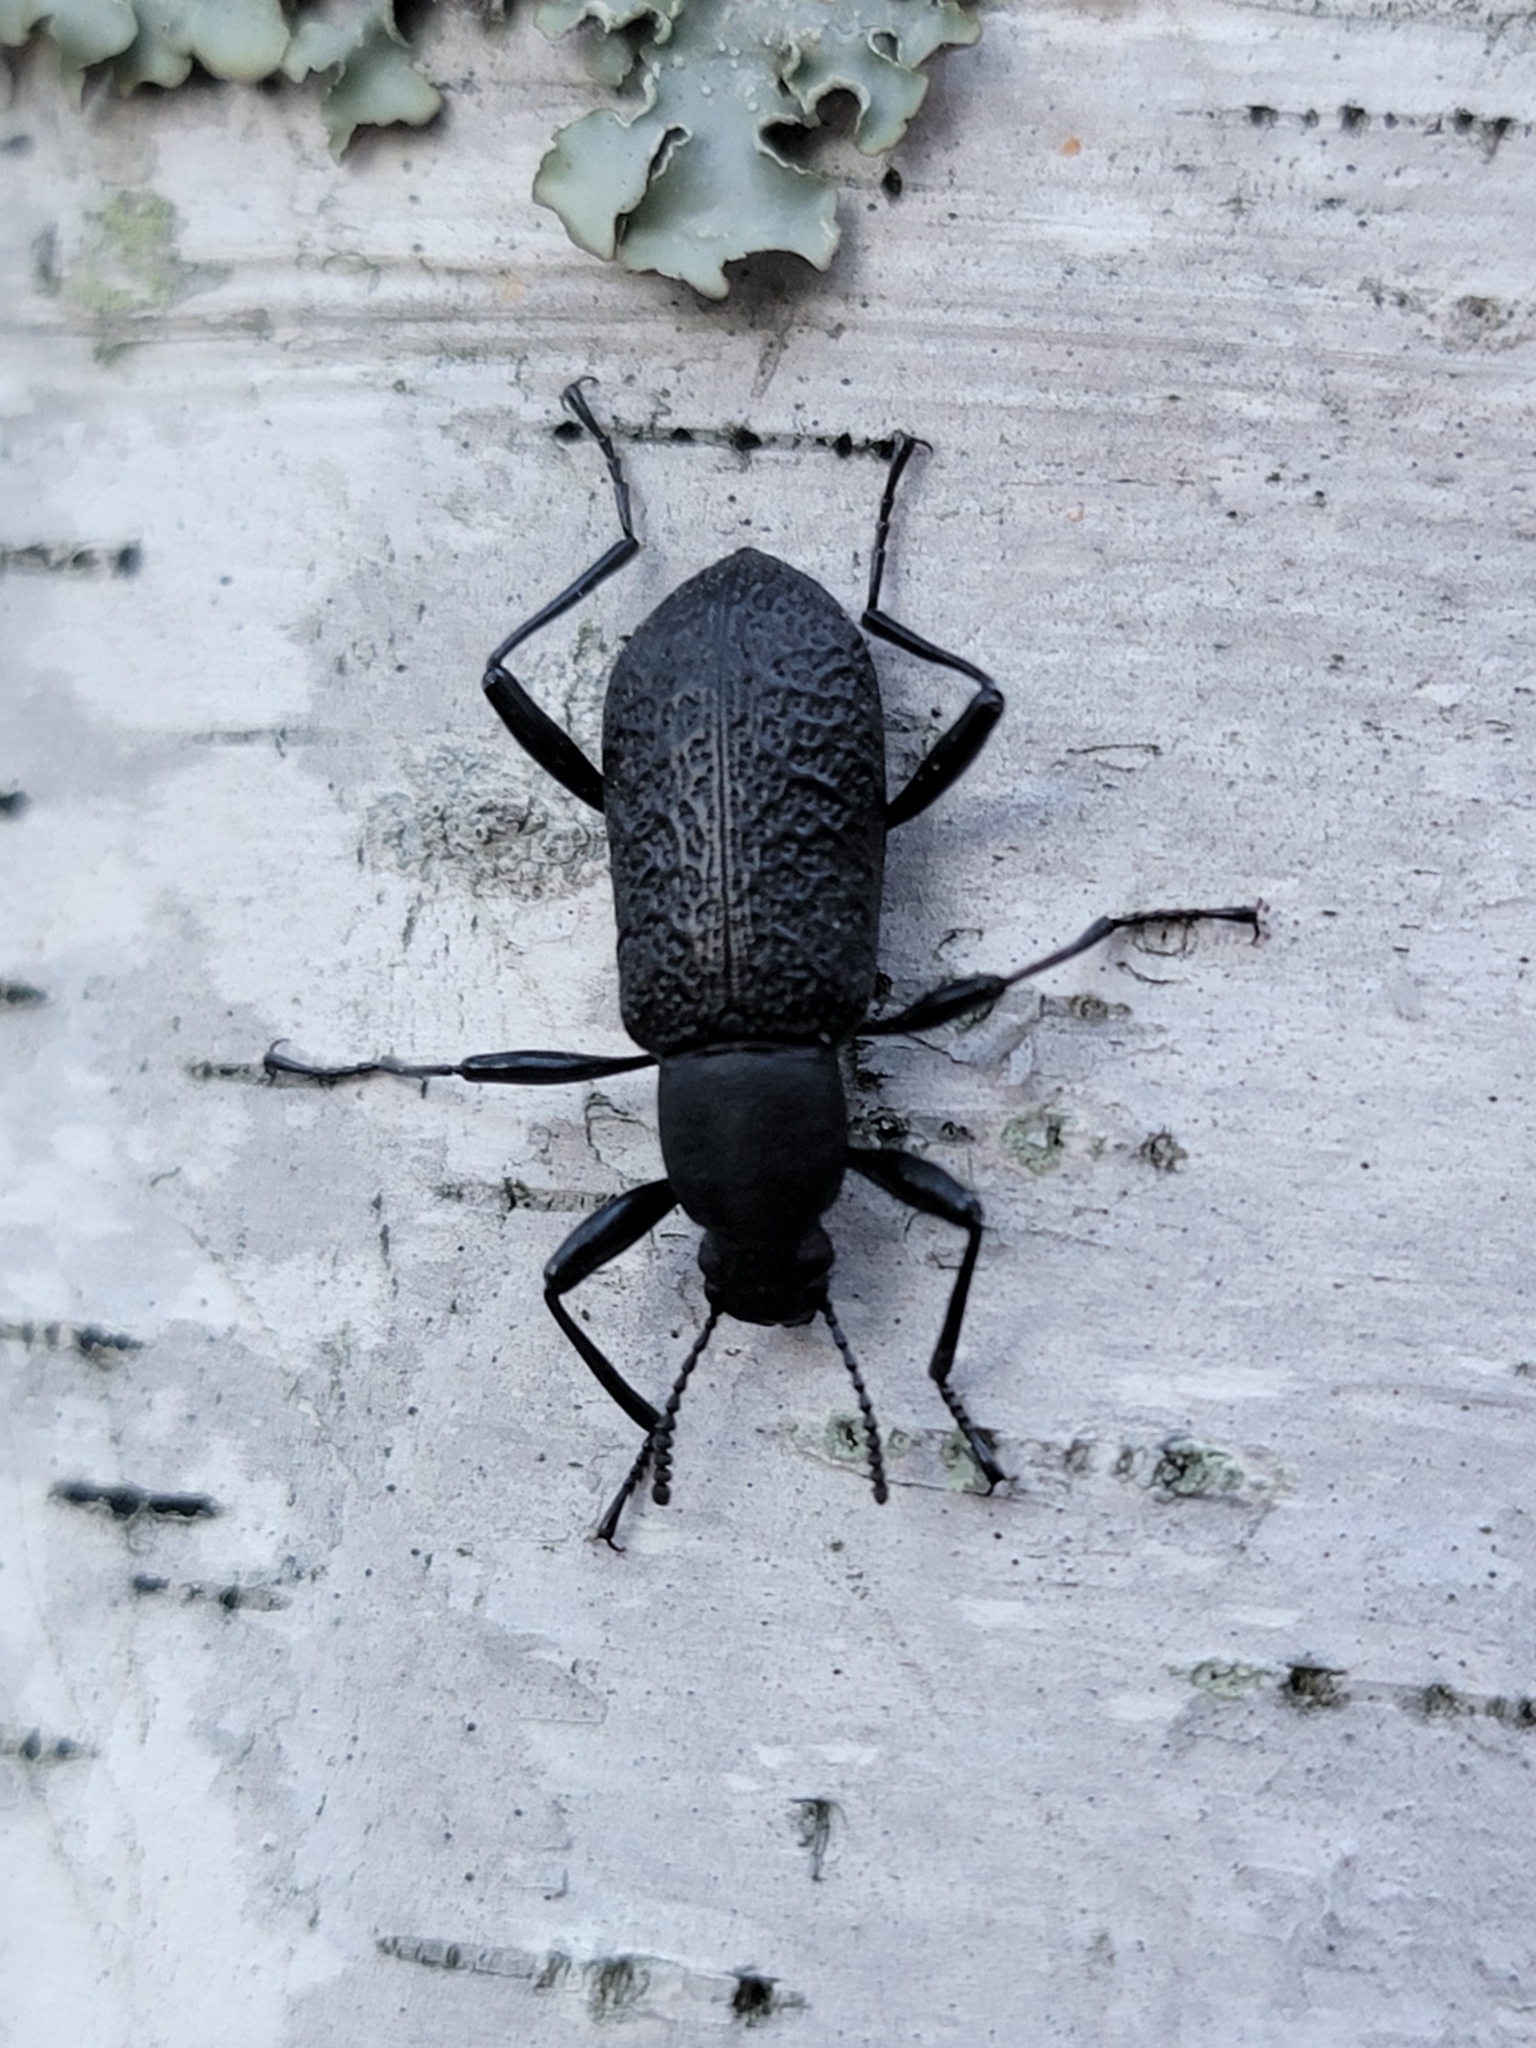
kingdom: Animalia
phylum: Arthropoda
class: Insecta
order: Coleoptera
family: Tenebrionidae
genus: Upis
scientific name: Upis ceramboides
